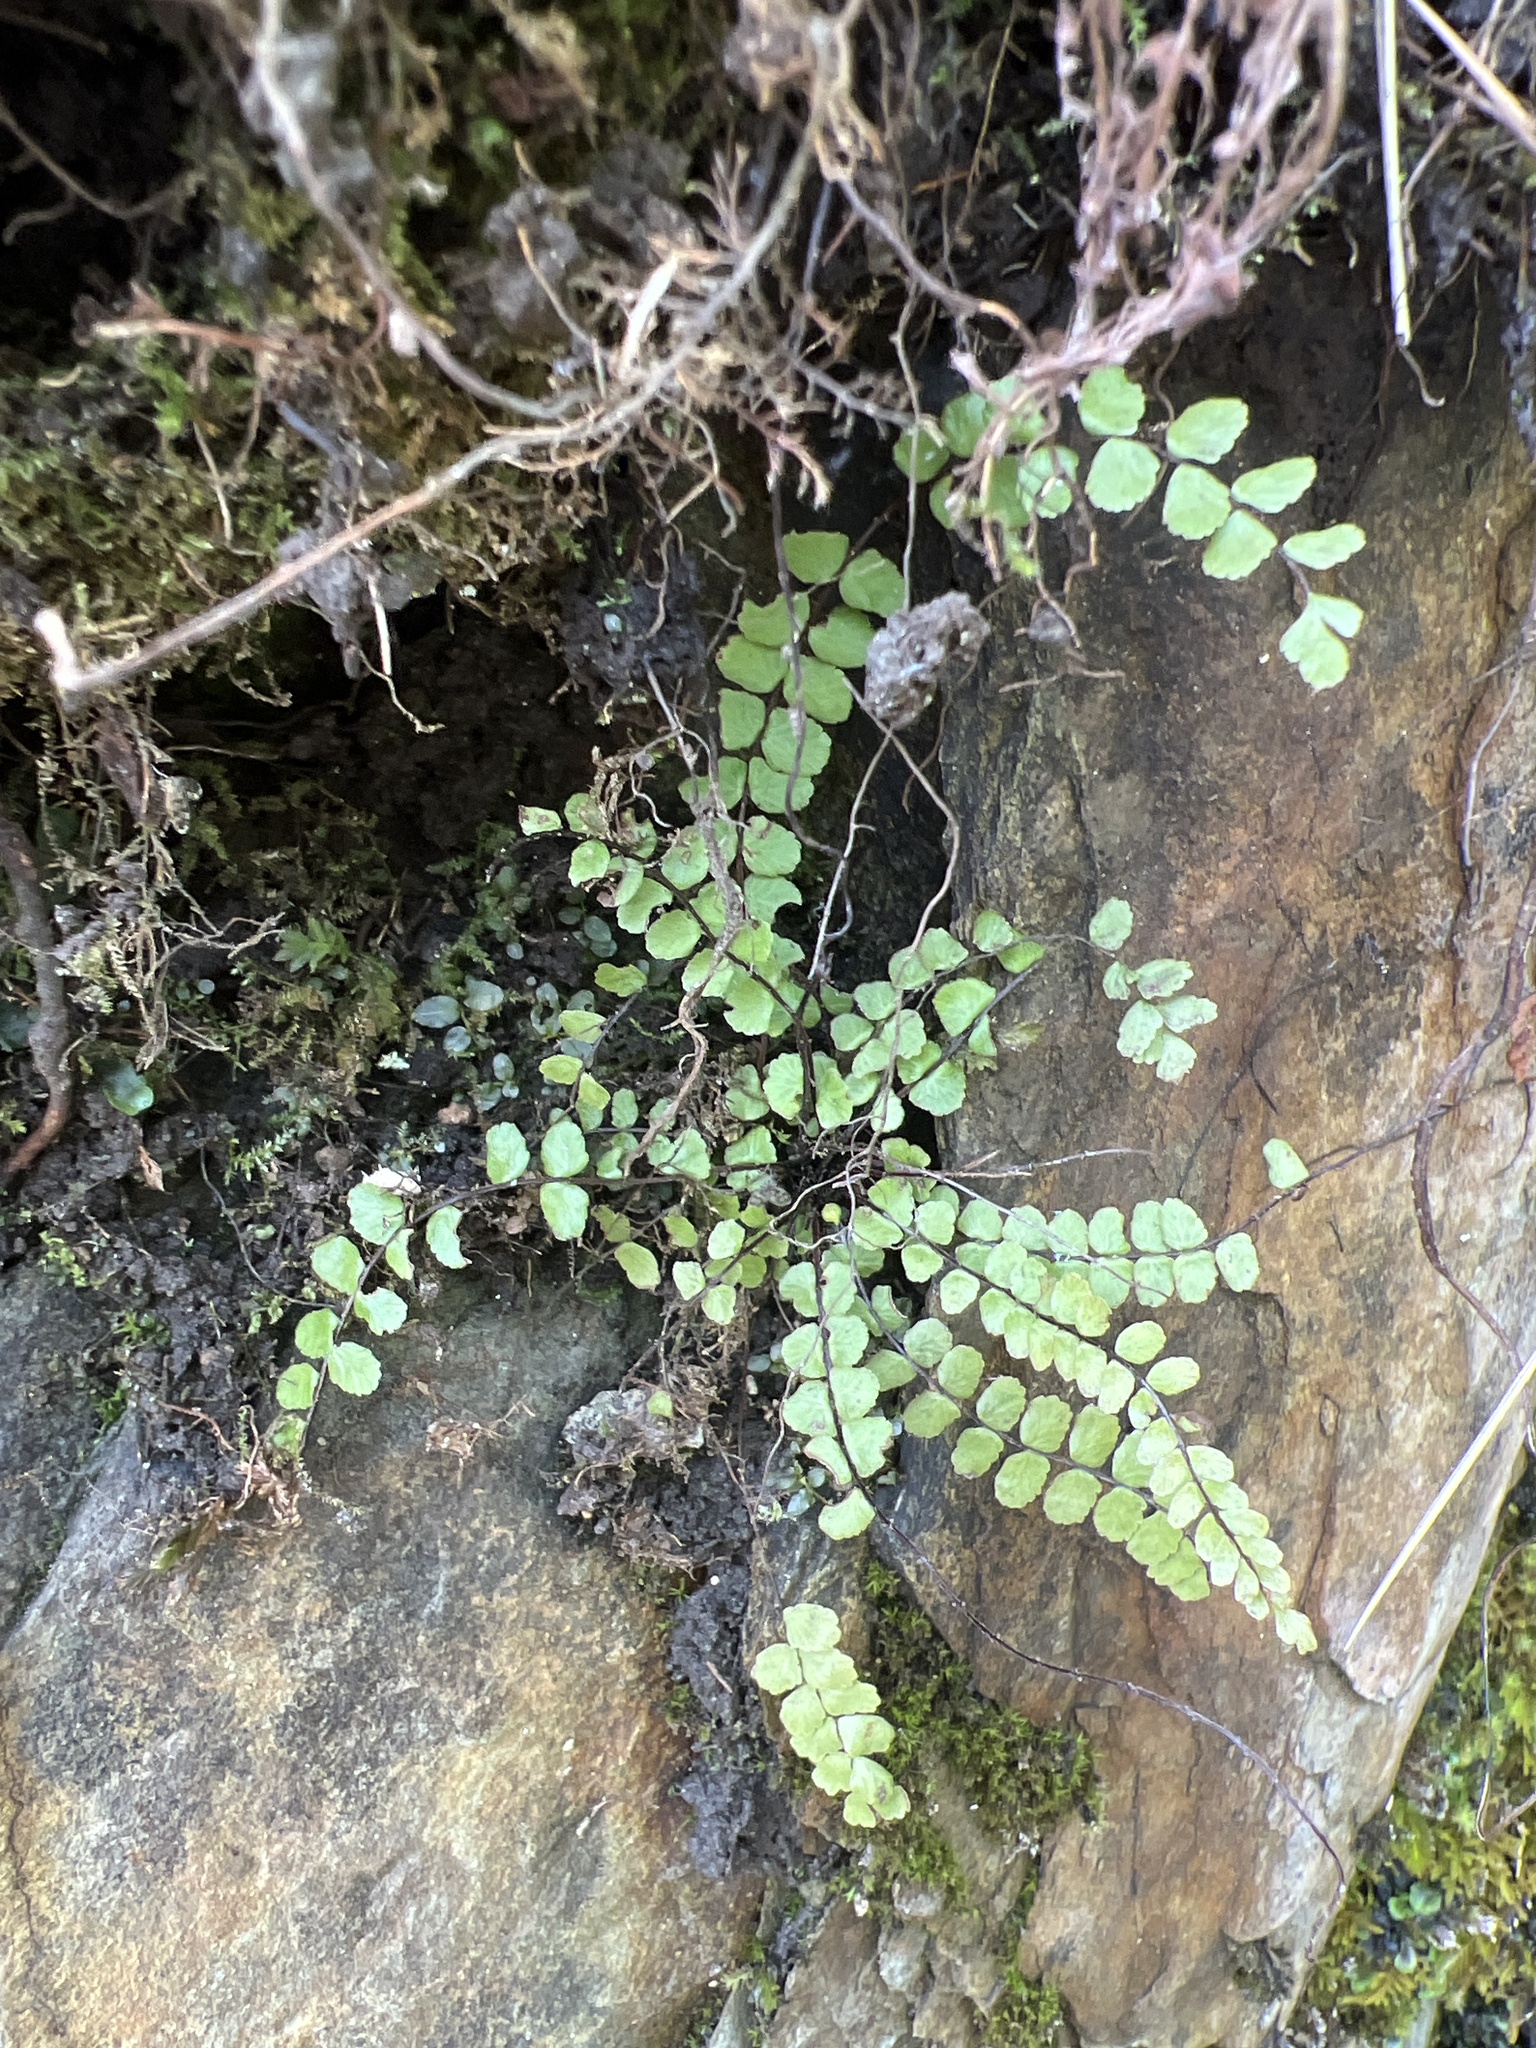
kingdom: Plantae
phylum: Tracheophyta
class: Polypodiopsida
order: Polypodiales
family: Aspleniaceae
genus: Asplenium
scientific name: Asplenium trichomanes
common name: Maidenhair spleenwort
